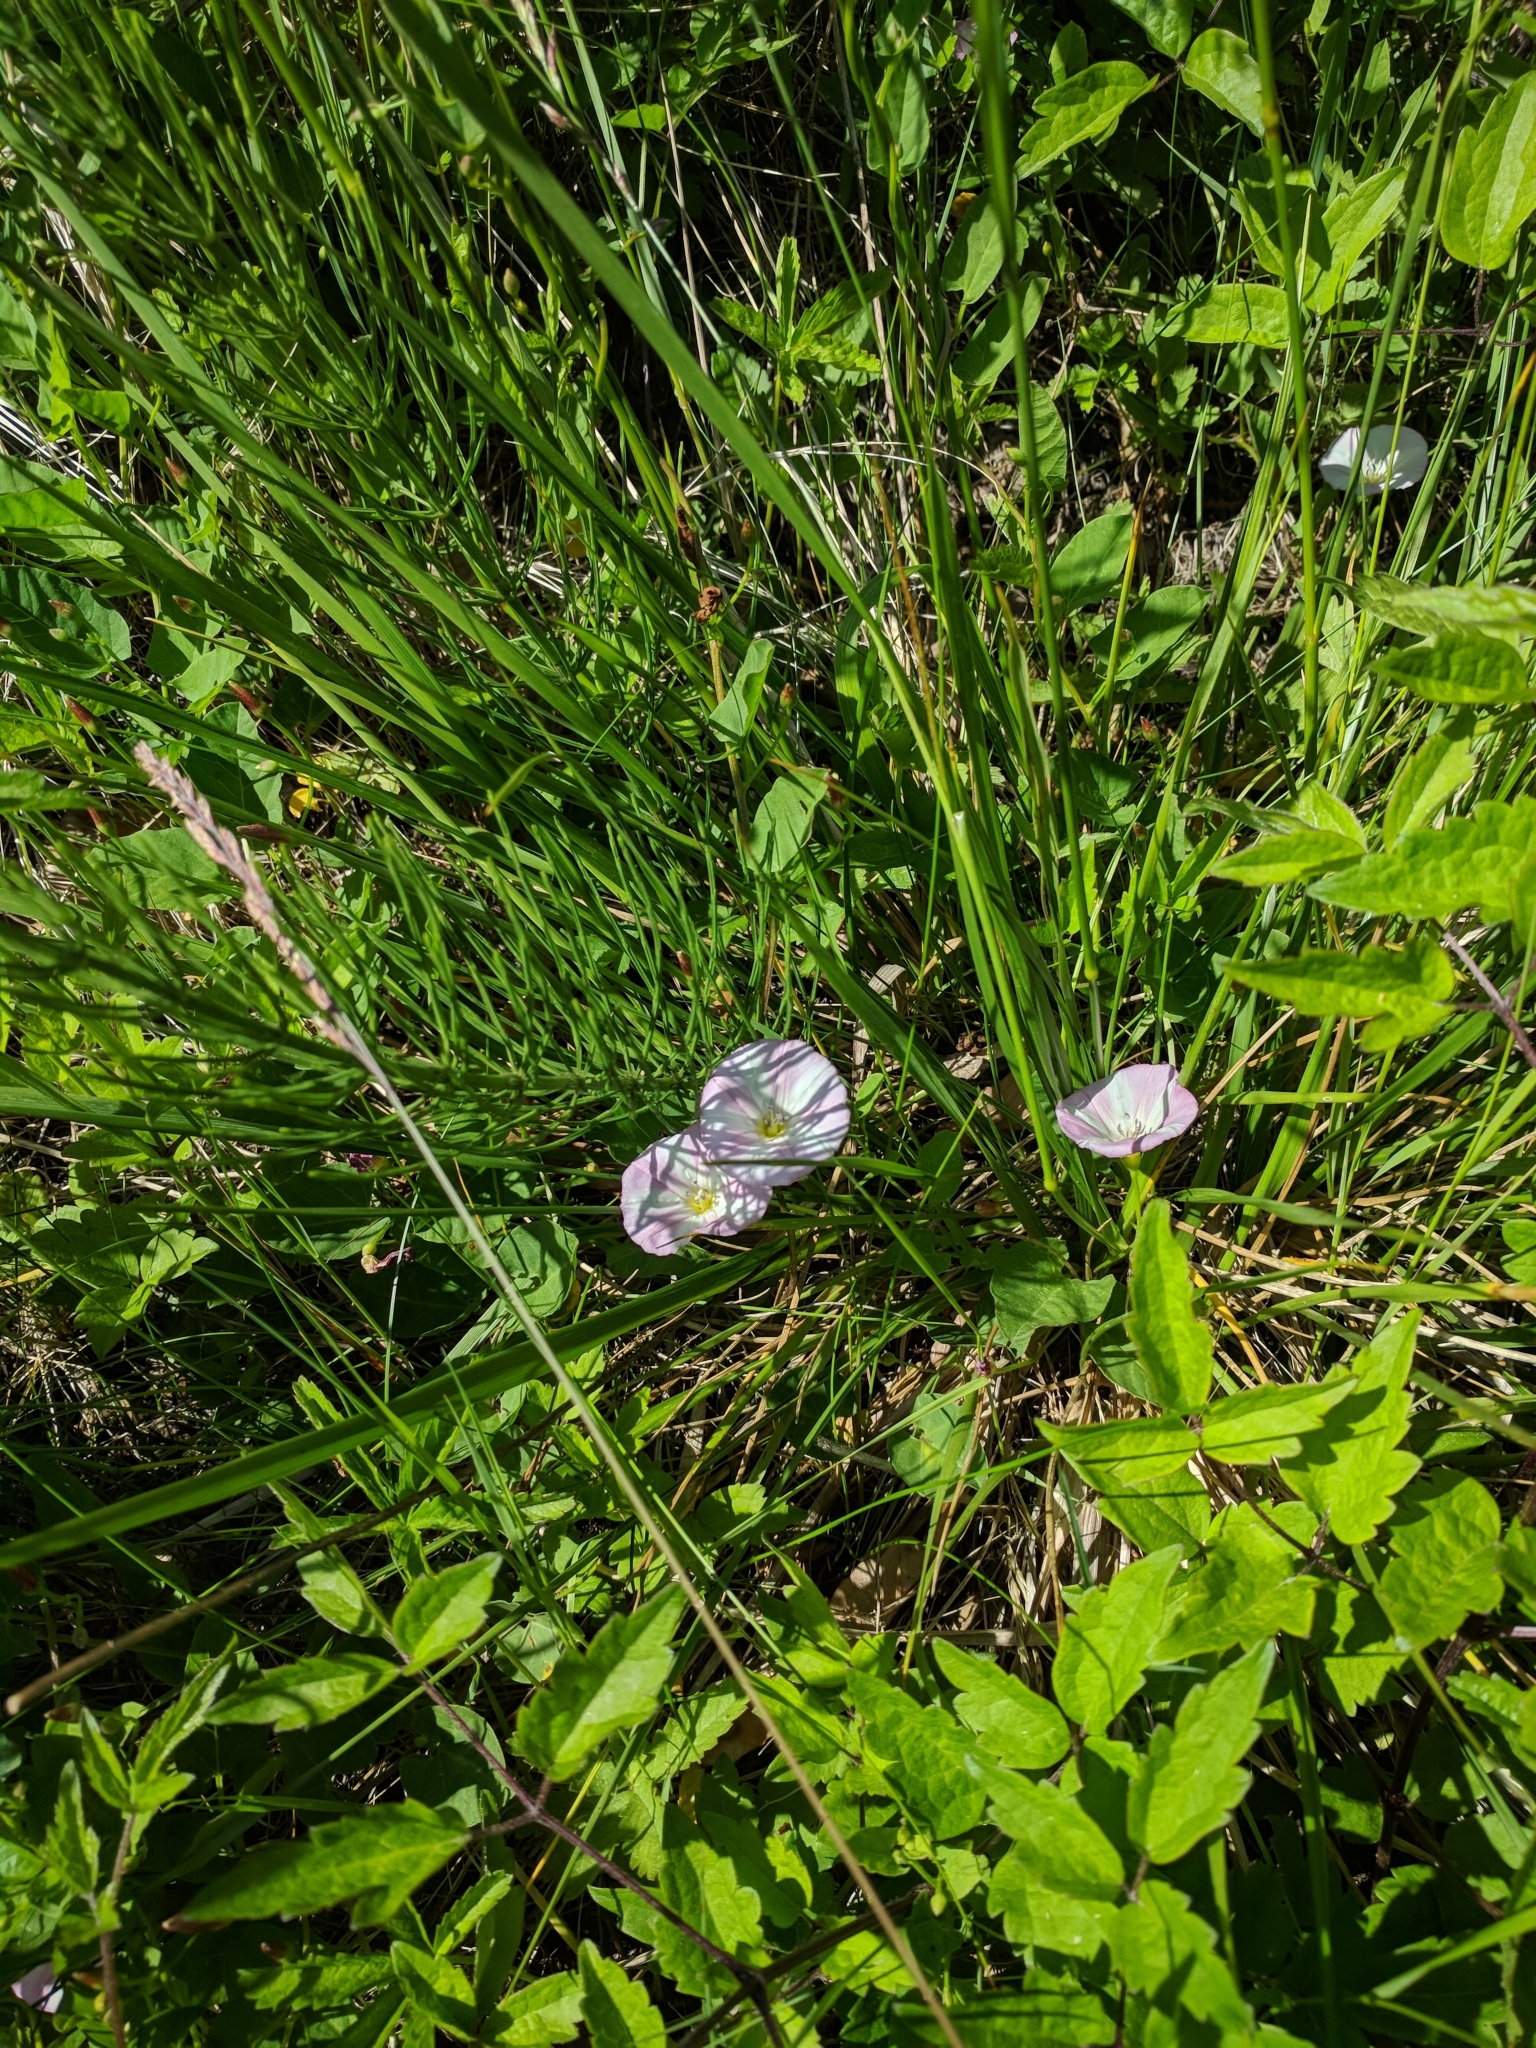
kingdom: Plantae
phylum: Tracheophyta
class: Magnoliopsida
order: Solanales
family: Convolvulaceae
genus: Convolvulus
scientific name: Convolvulus arvensis
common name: Field bindweed
